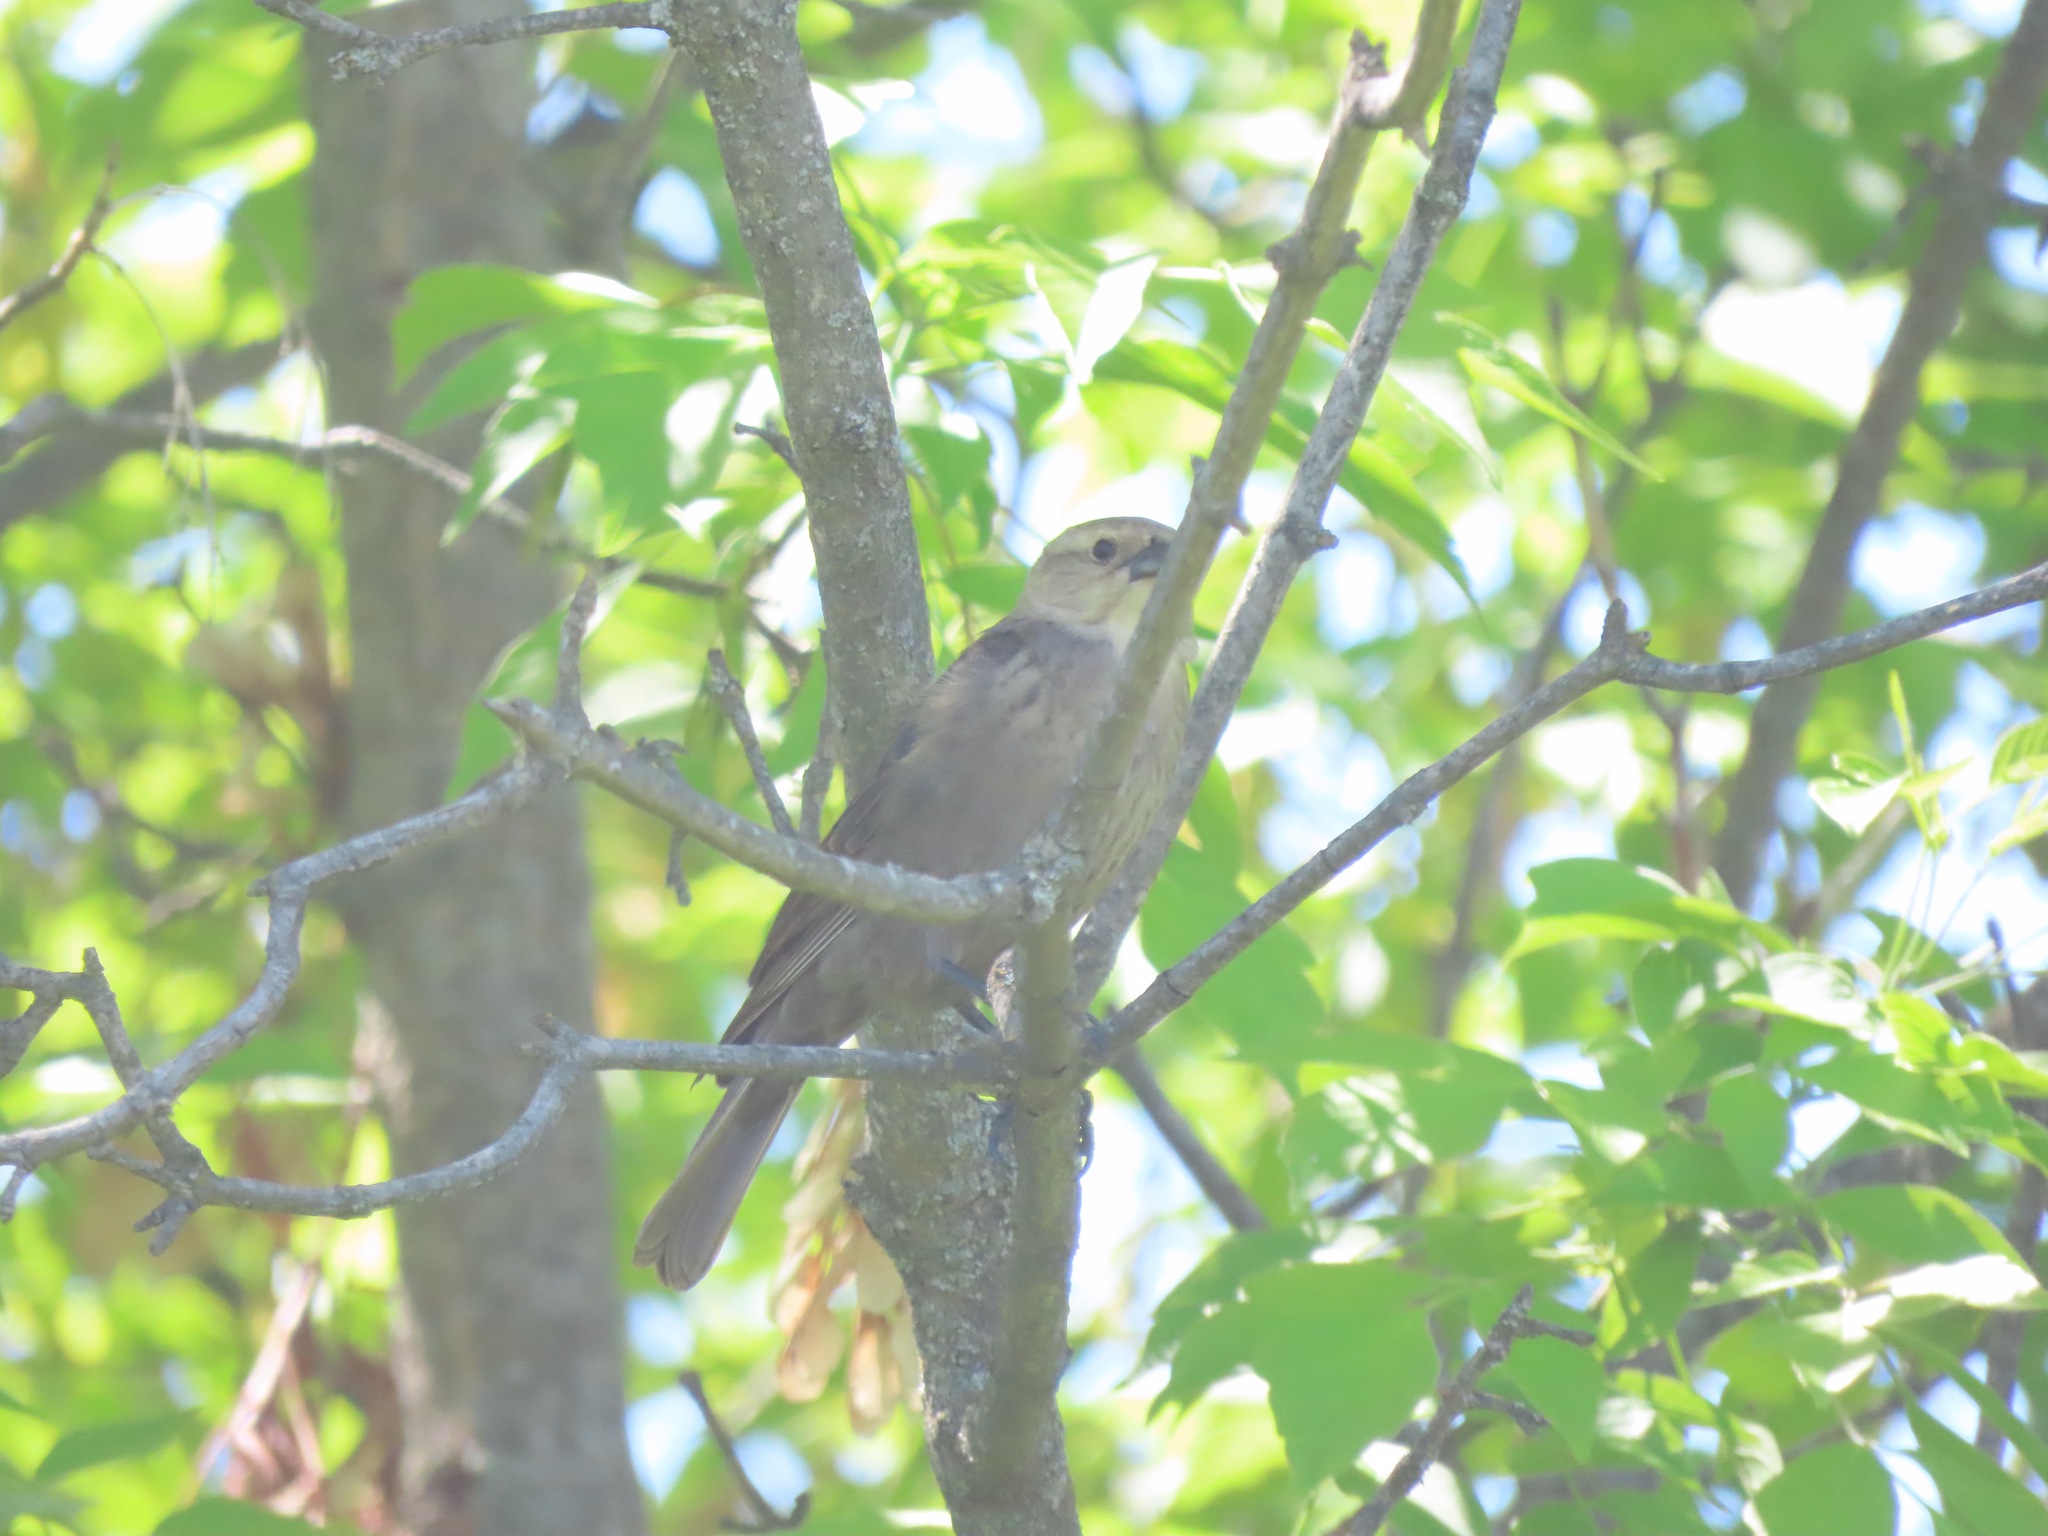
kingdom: Animalia
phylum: Chordata
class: Aves
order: Passeriformes
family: Icteridae
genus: Molothrus
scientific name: Molothrus ater
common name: Brown-headed cowbird
